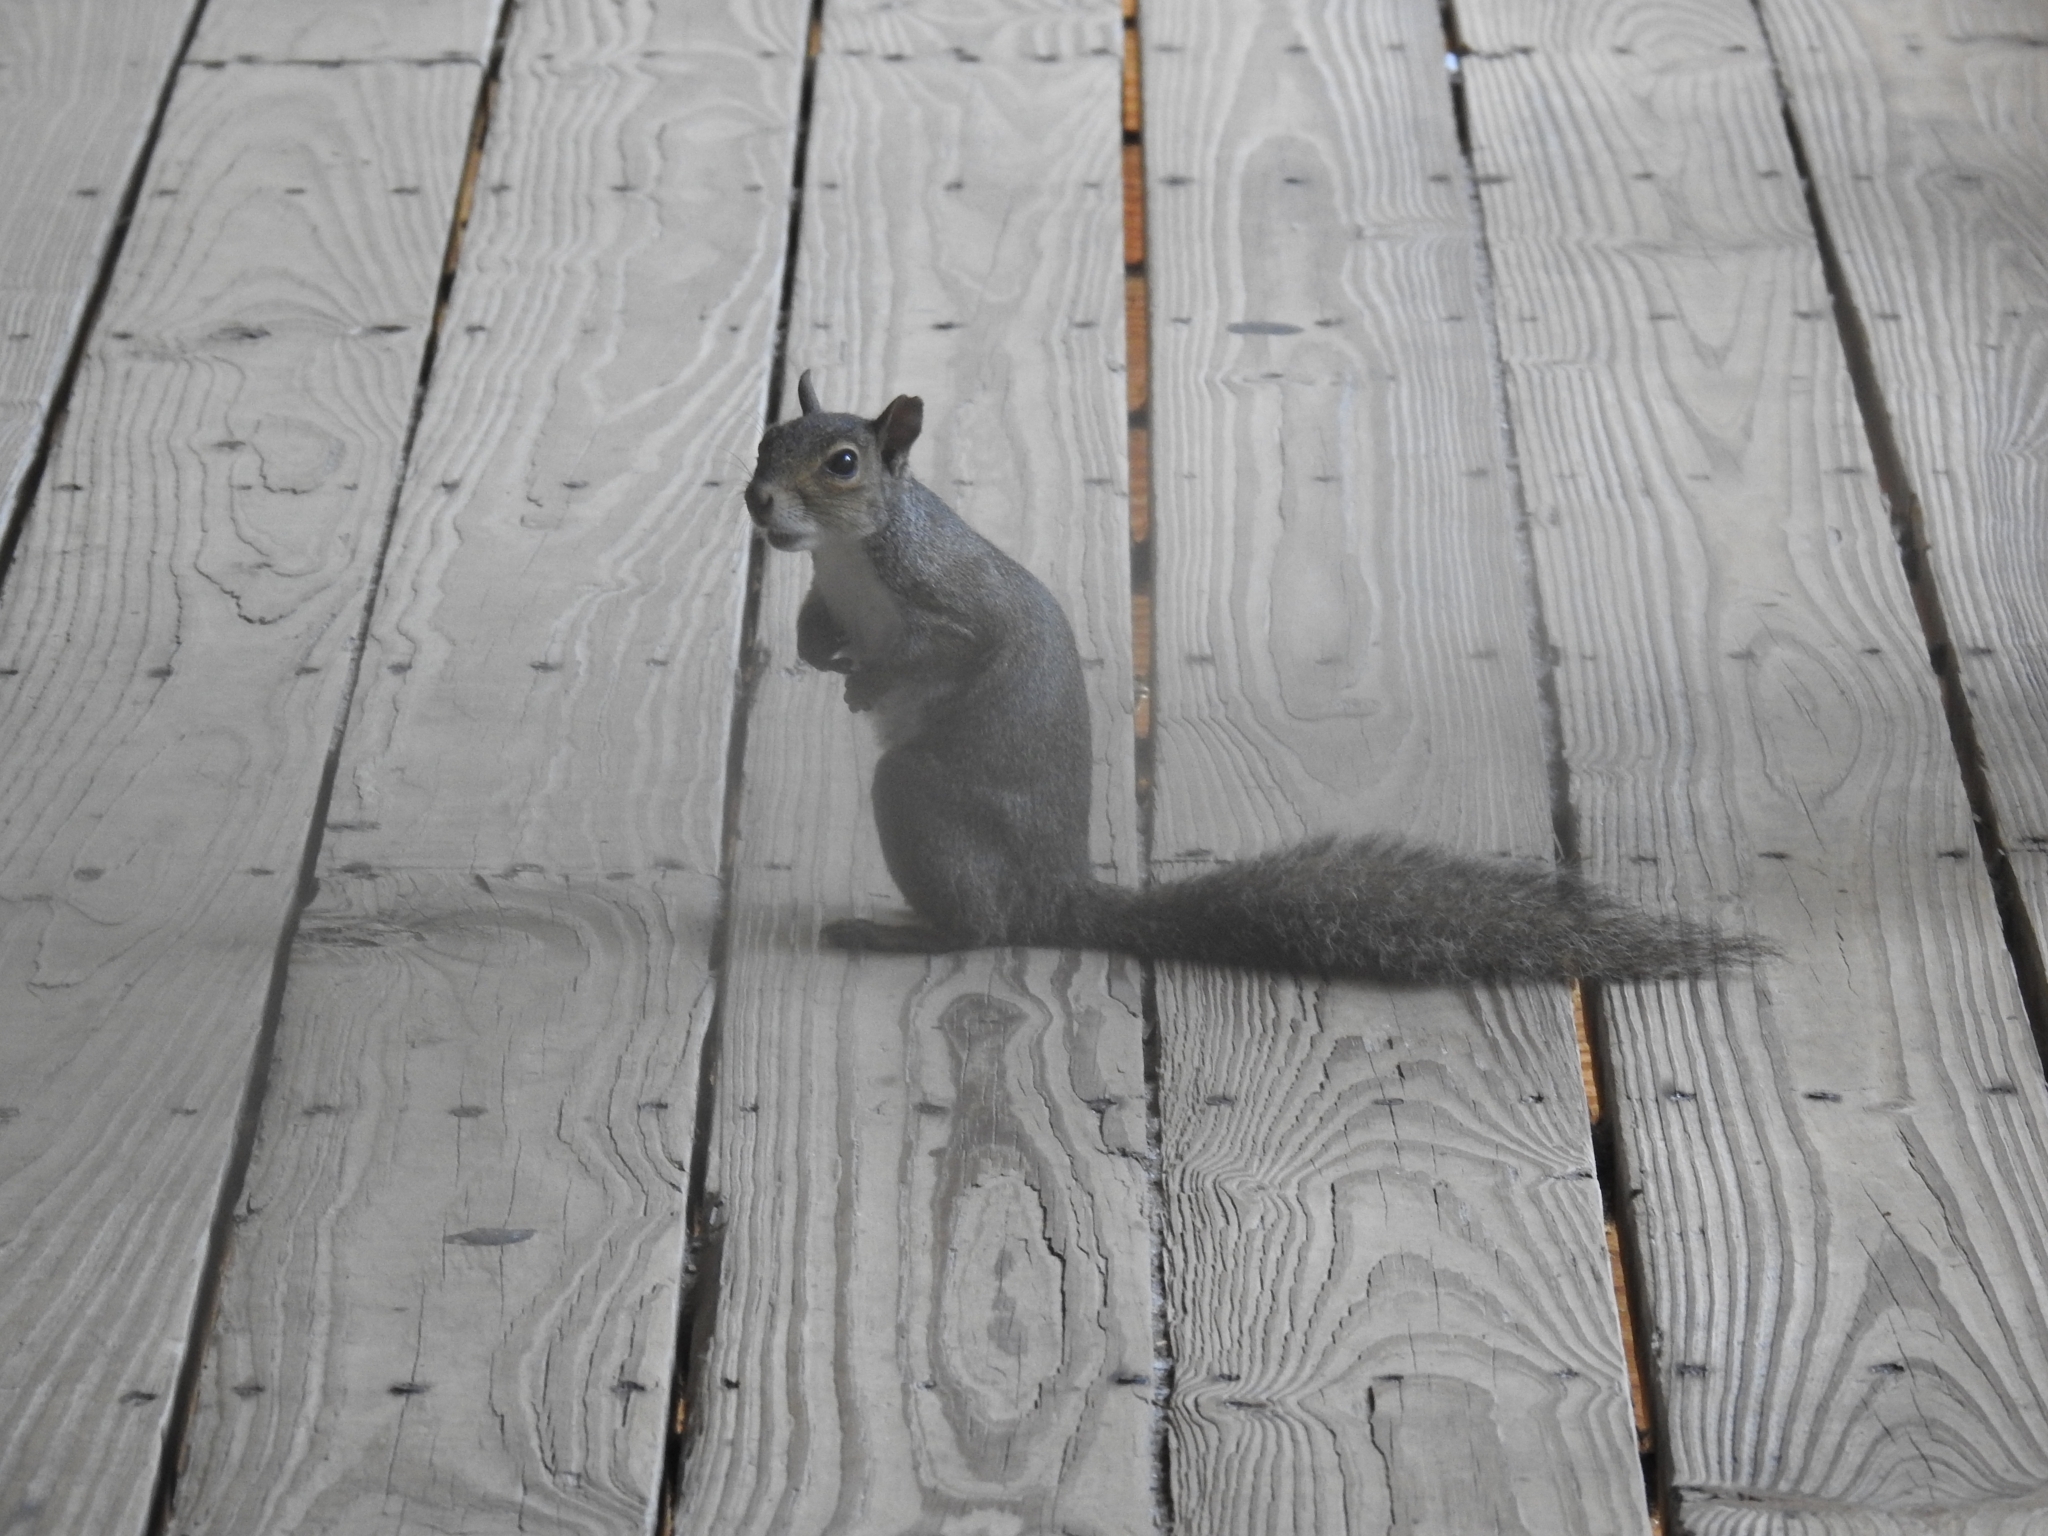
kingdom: Animalia
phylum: Chordata
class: Mammalia
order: Rodentia
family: Sciuridae
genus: Sciurus
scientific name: Sciurus carolinensis
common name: Eastern gray squirrel
